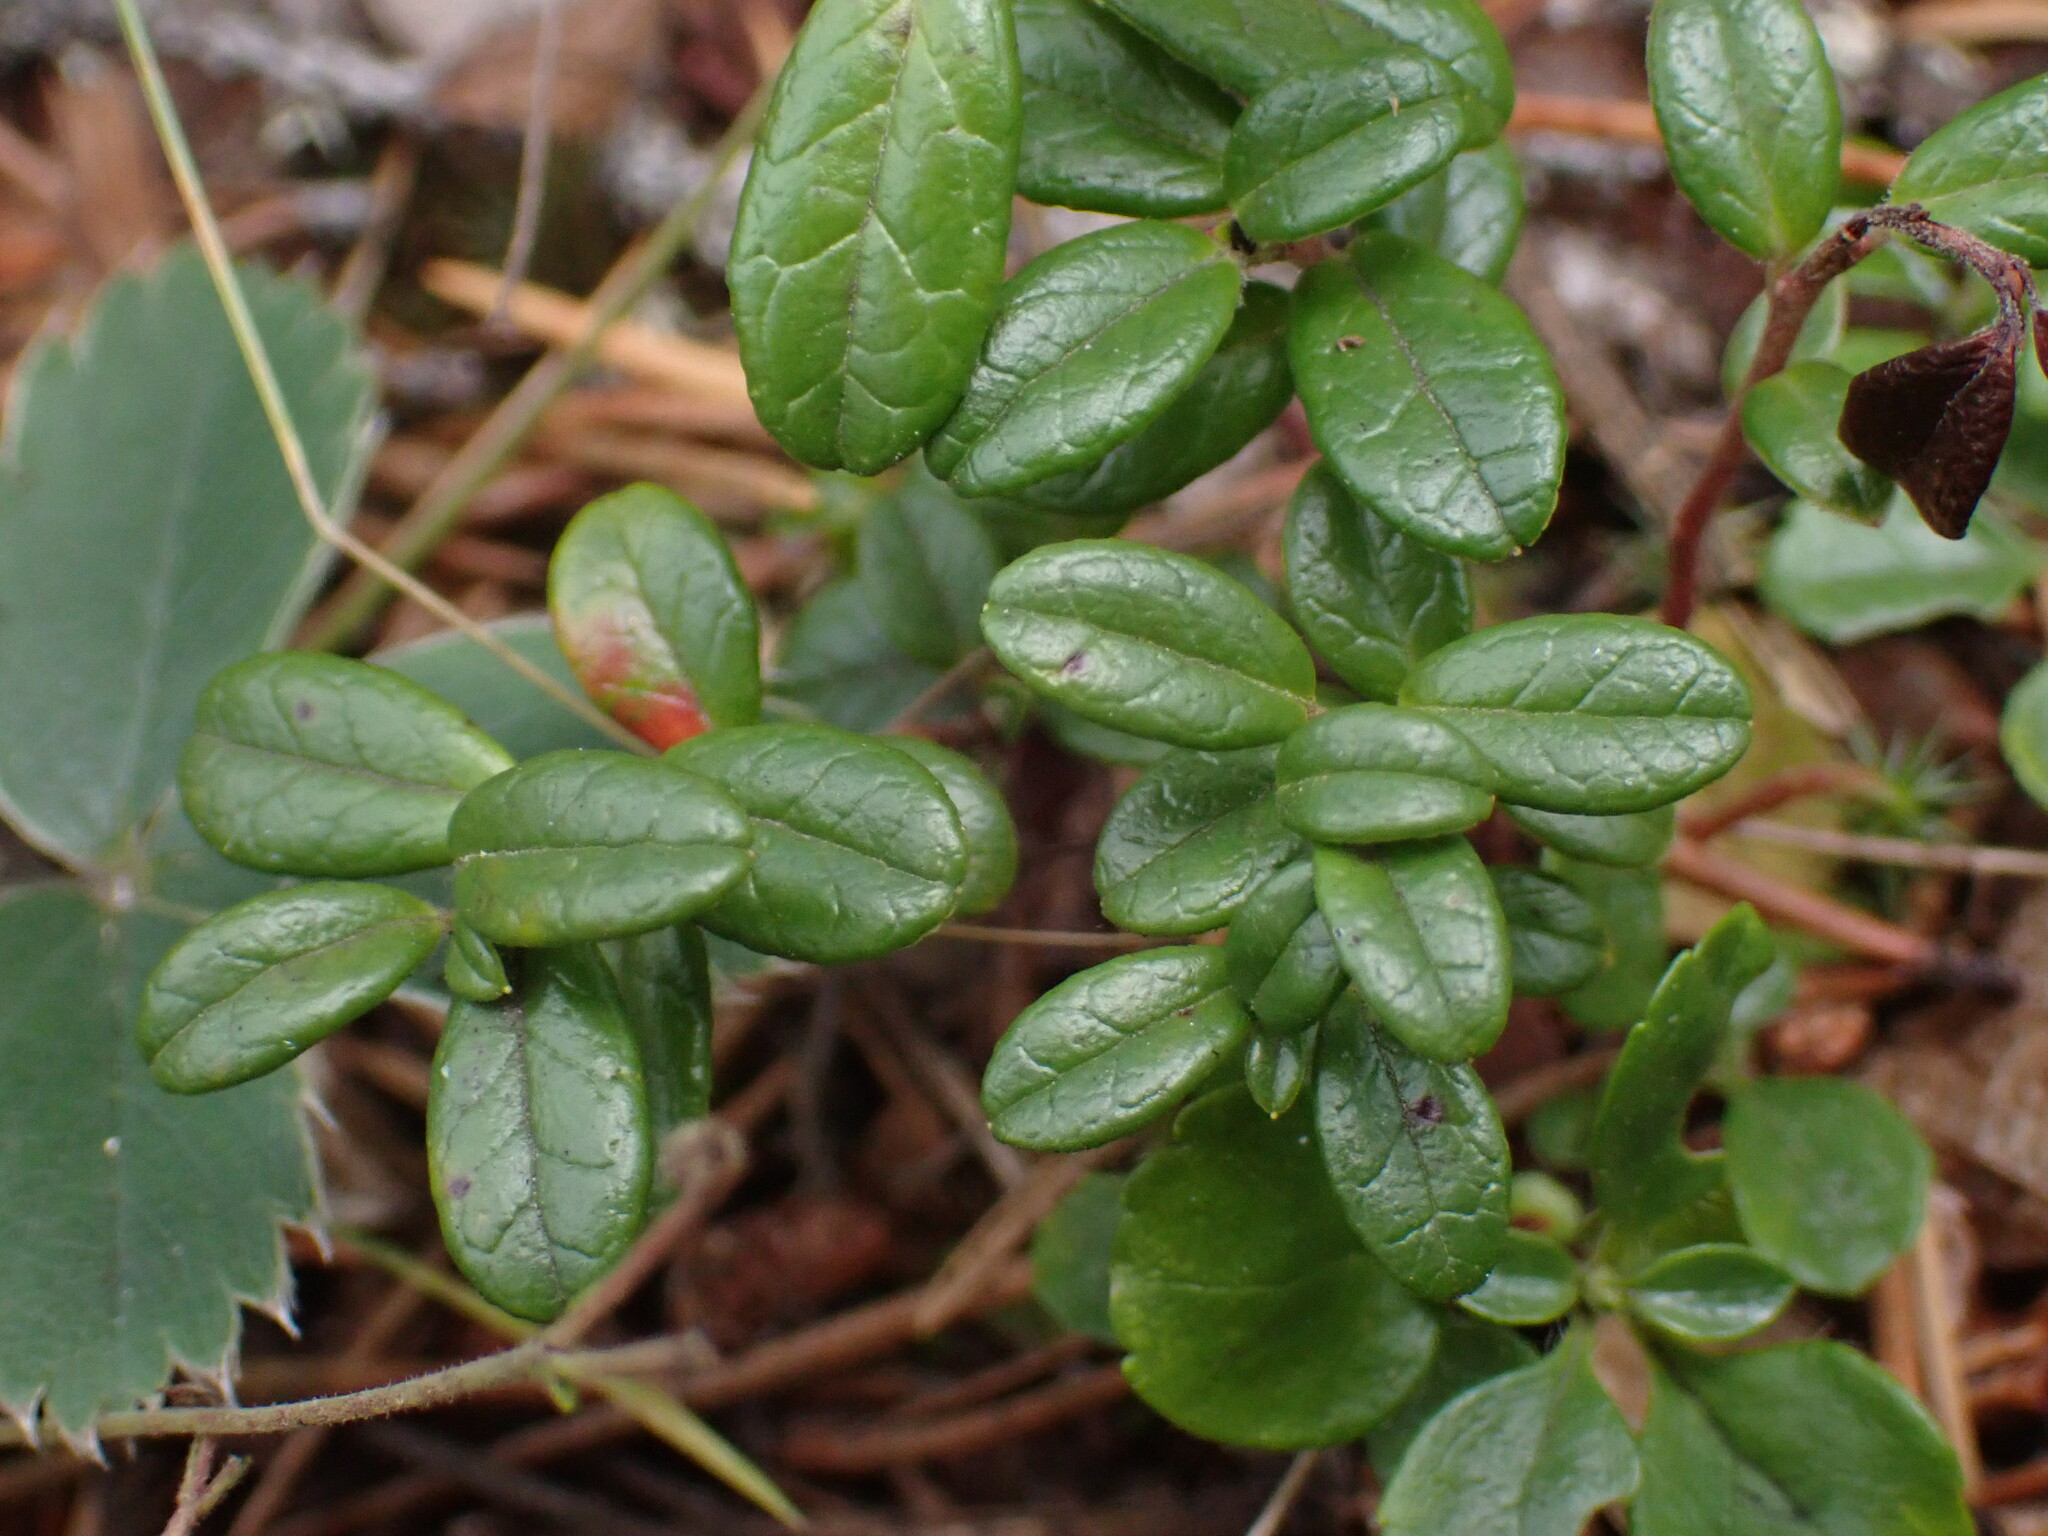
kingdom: Plantae
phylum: Tracheophyta
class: Magnoliopsida
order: Ericales
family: Ericaceae
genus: Vaccinium
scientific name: Vaccinium vitis-idaea
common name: Cowberry
